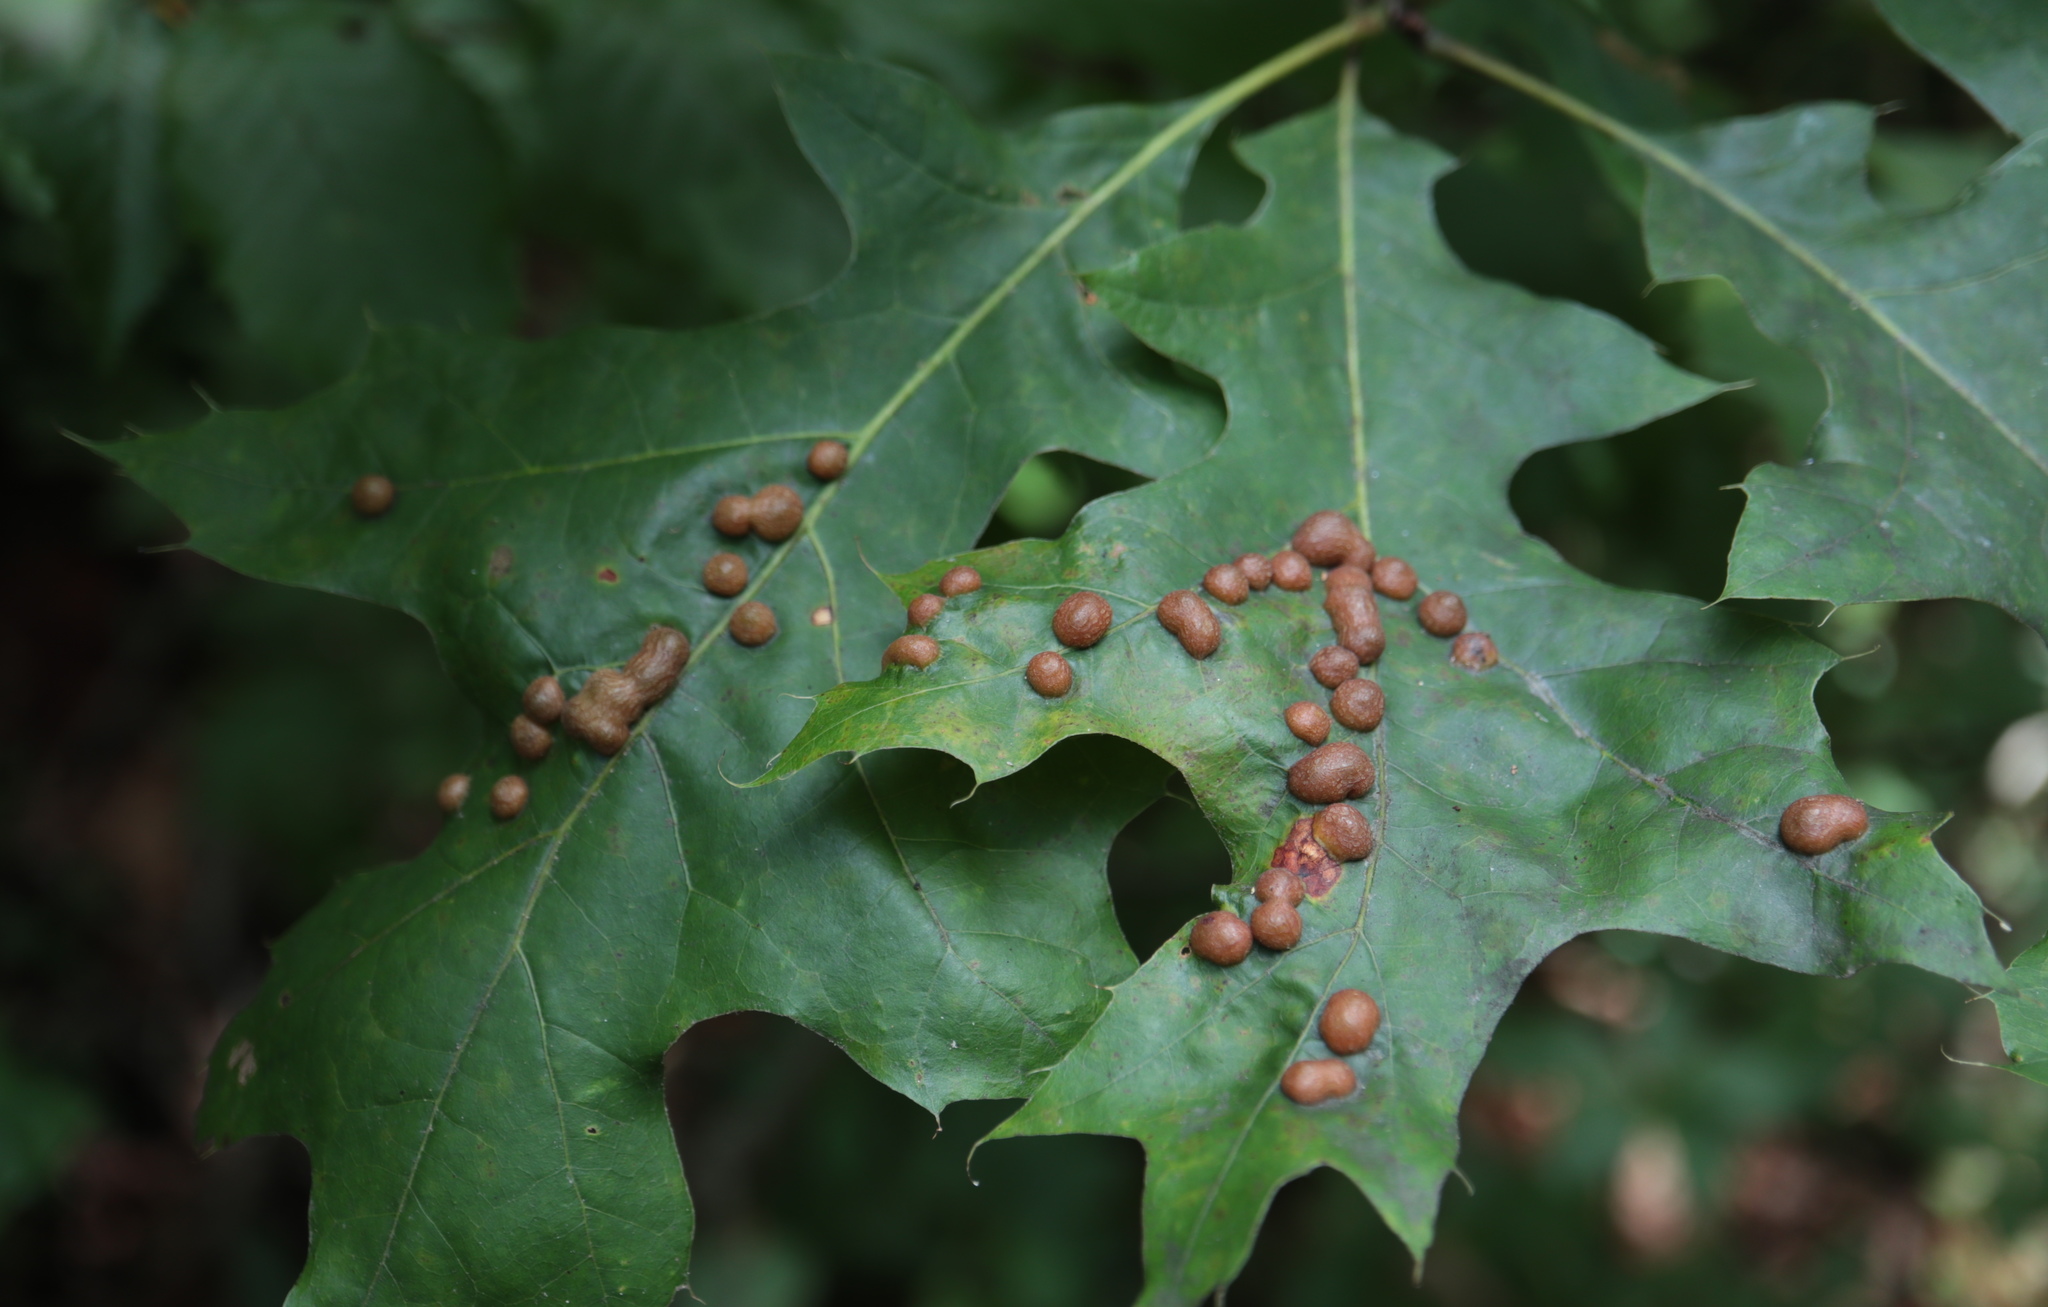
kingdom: Animalia
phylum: Arthropoda
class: Insecta
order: Diptera
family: Cecidomyiidae
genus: Polystepha
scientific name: Polystepha pilulae
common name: Oak leaf gall midge
